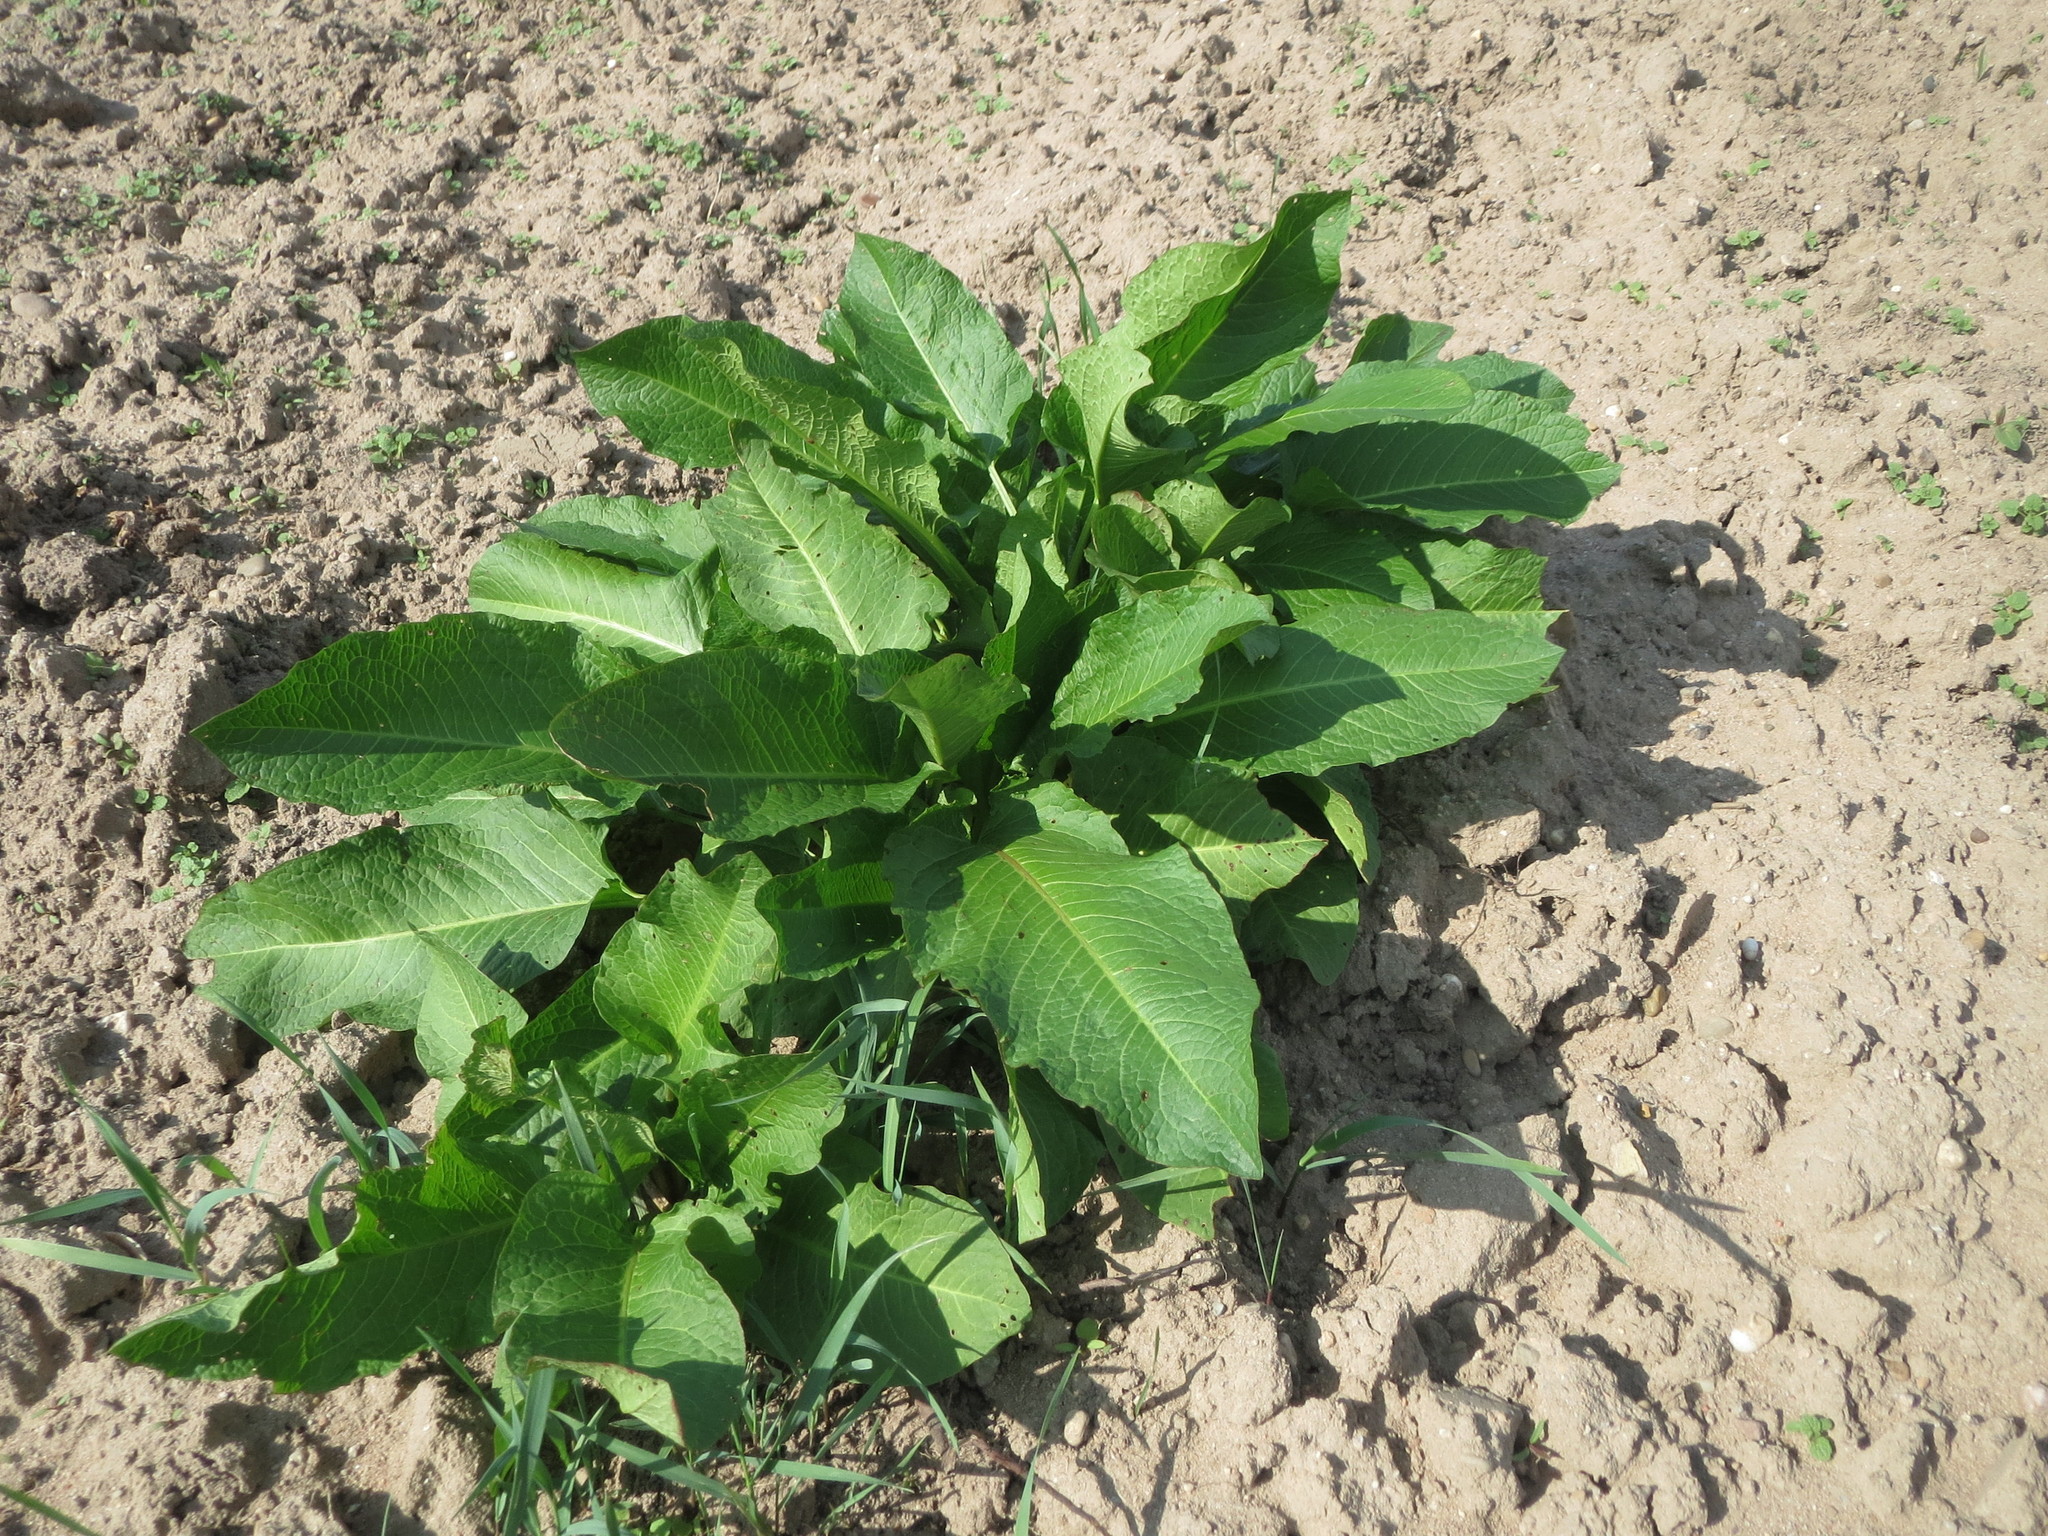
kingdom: Plantae
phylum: Tracheophyta
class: Magnoliopsida
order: Caryophyllales
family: Polygonaceae
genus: Rumex
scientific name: Rumex obtusifolius
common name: Bitter dock
